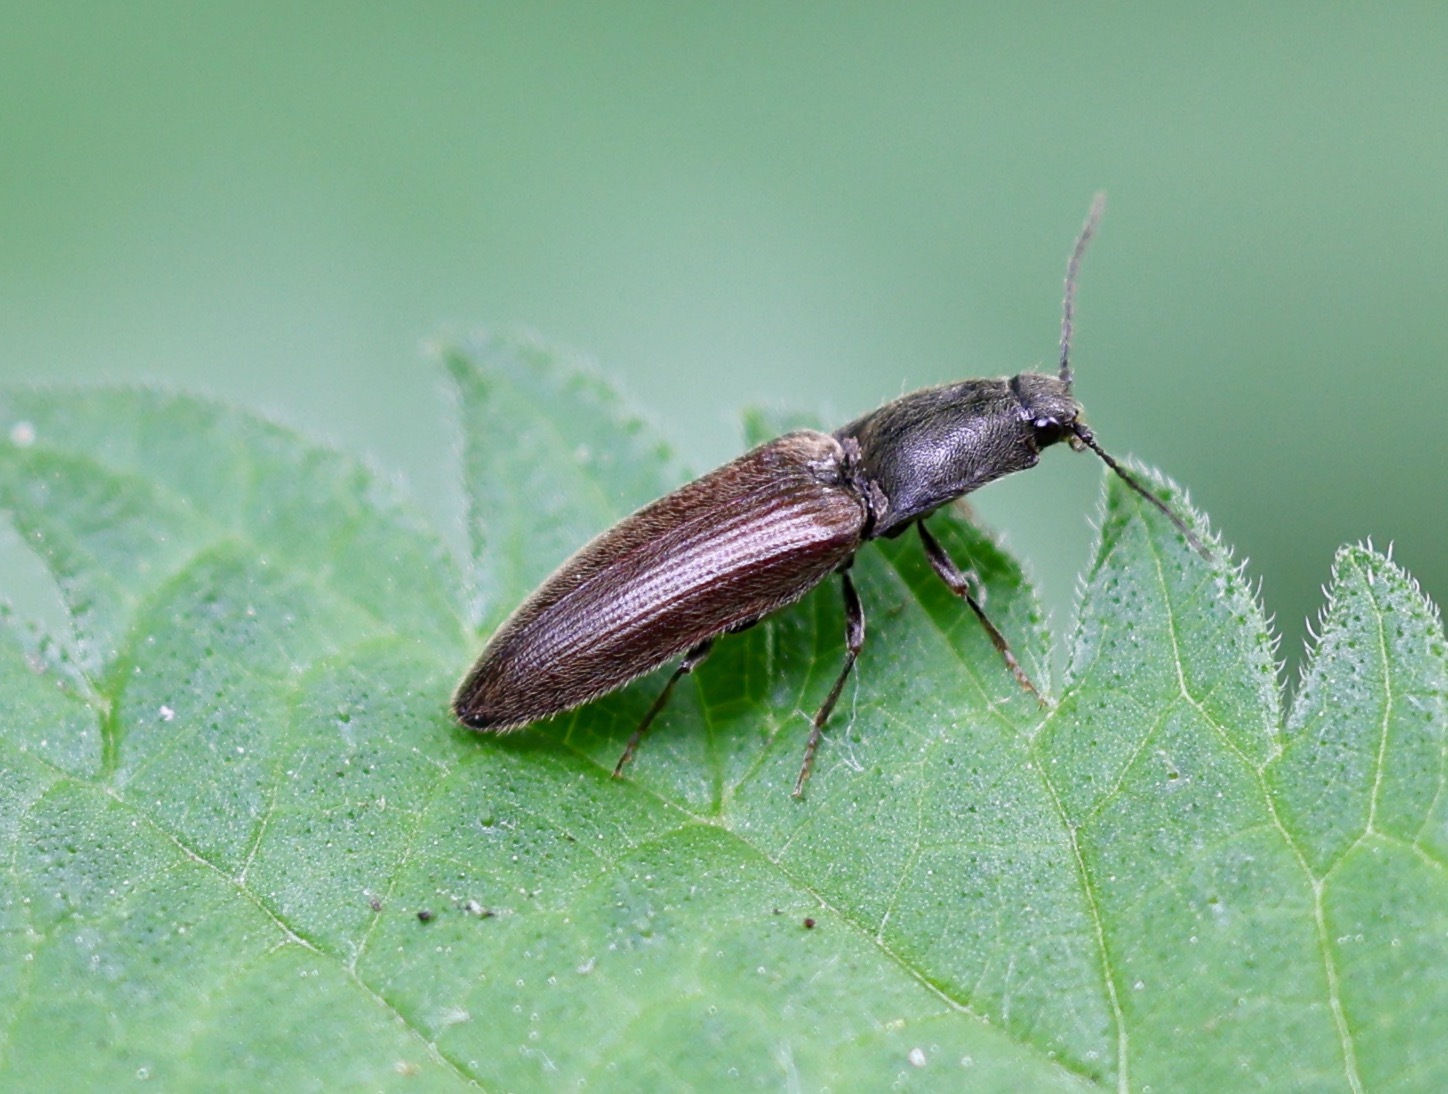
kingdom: Animalia
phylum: Arthropoda
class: Insecta
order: Coleoptera
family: Elateridae
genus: Athous
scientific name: Athous haemorrhoidalis
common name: Red-brown click beetle
